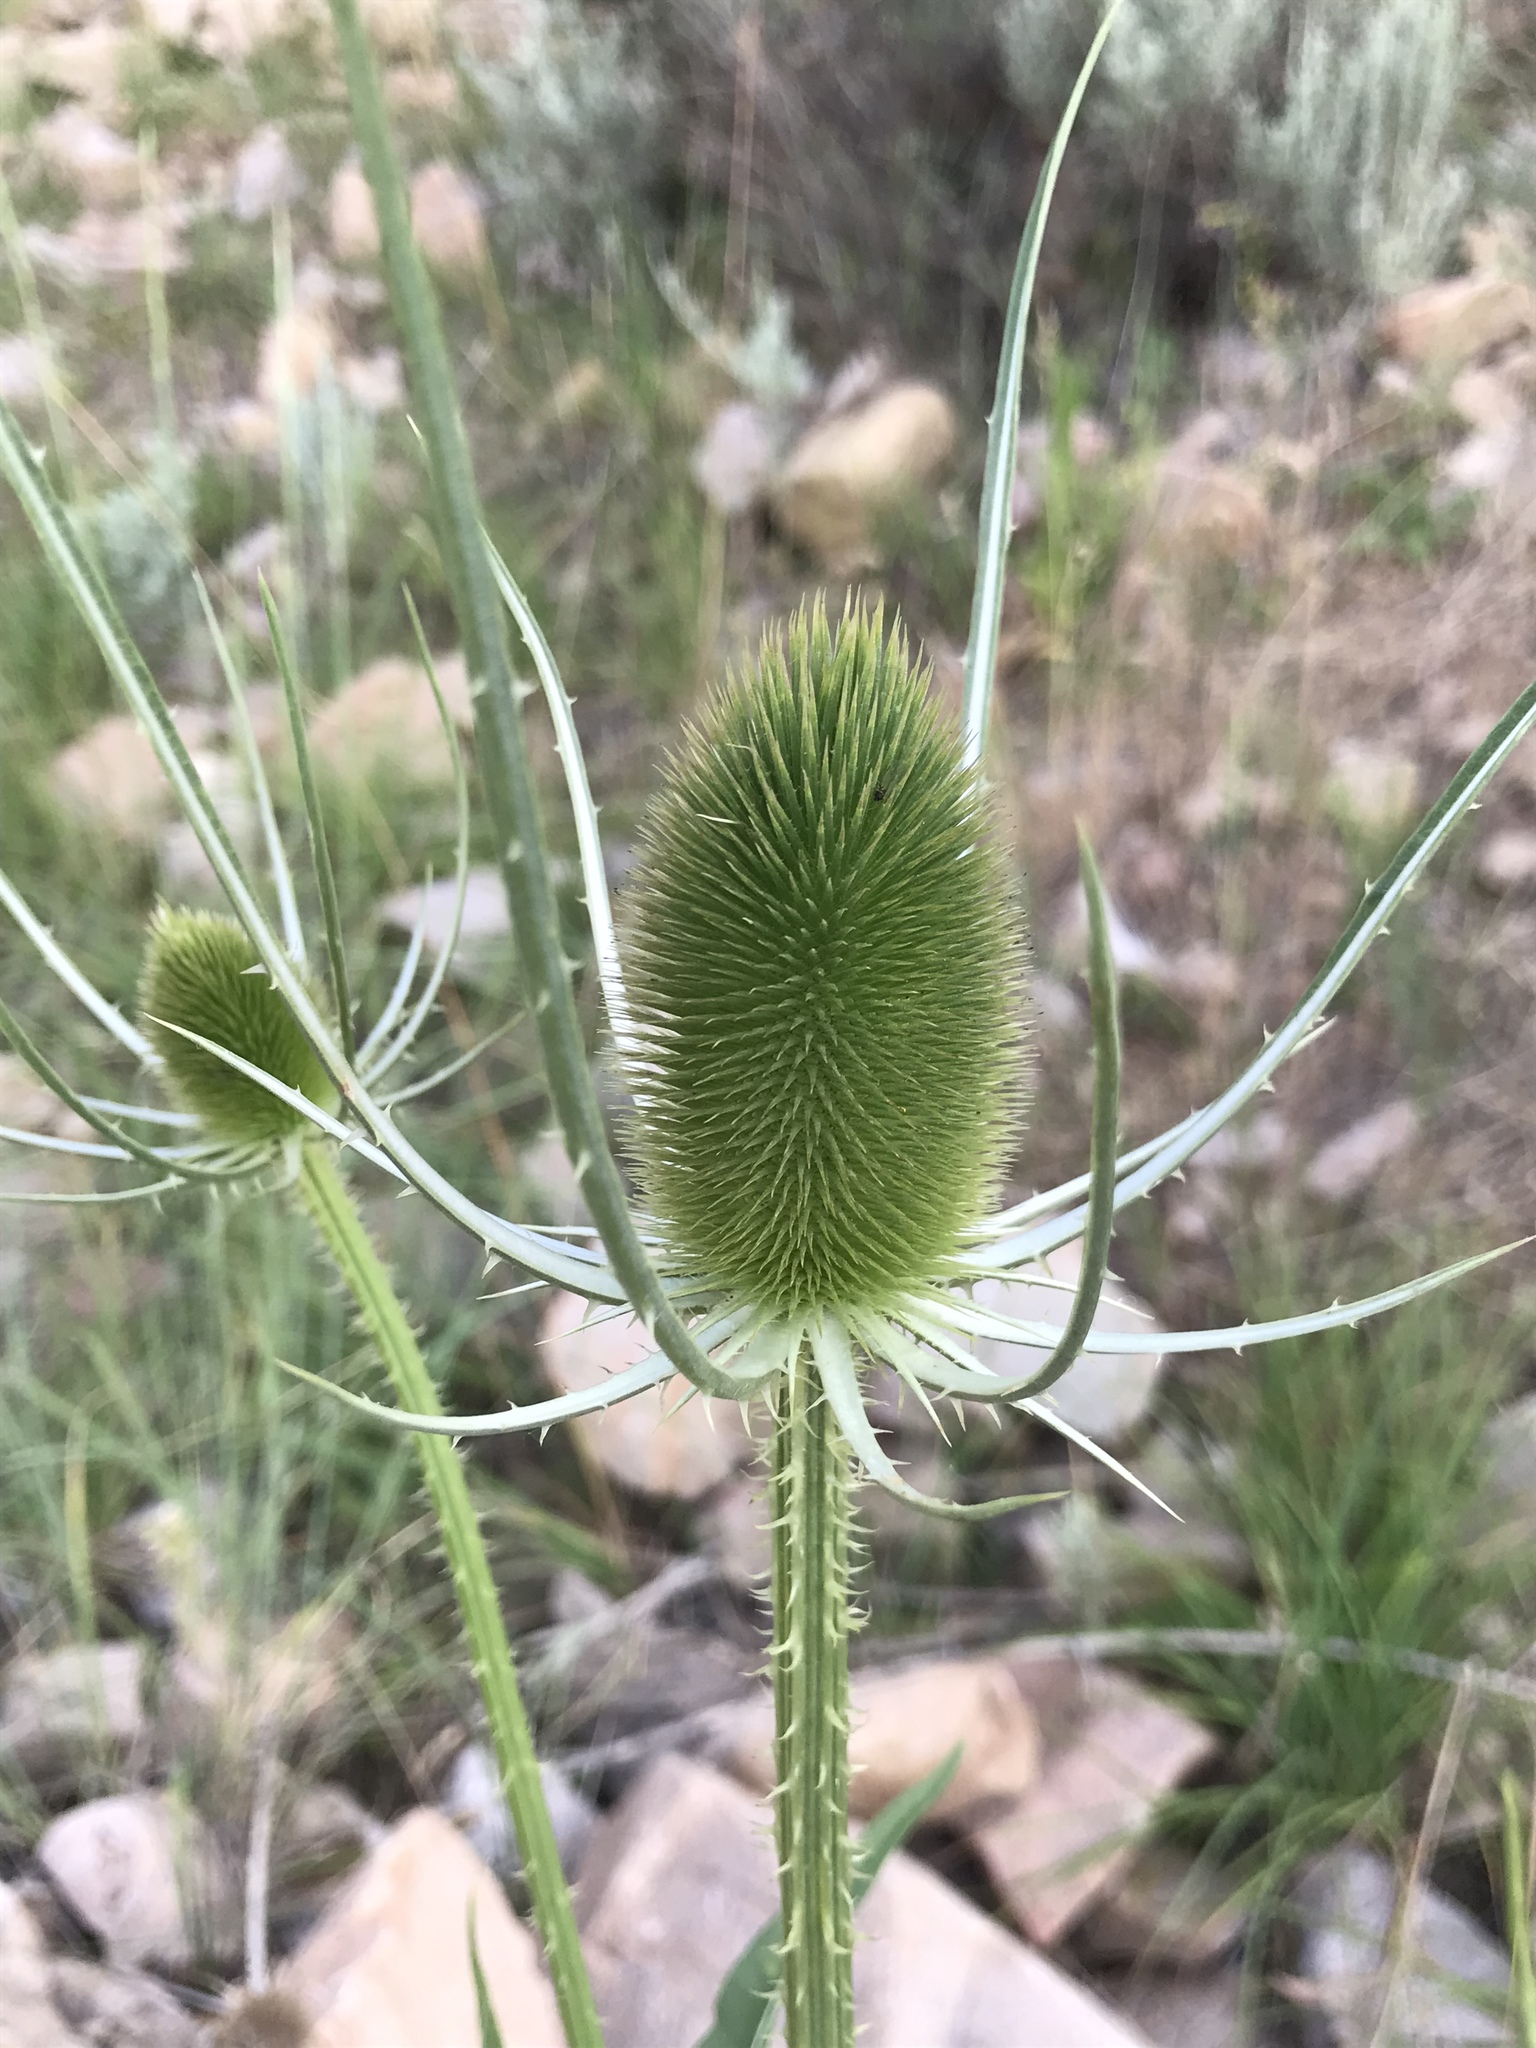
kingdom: Plantae
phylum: Tracheophyta
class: Magnoliopsida
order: Dipsacales
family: Caprifoliaceae
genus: Dipsacus
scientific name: Dipsacus fullonum
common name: Teasel
